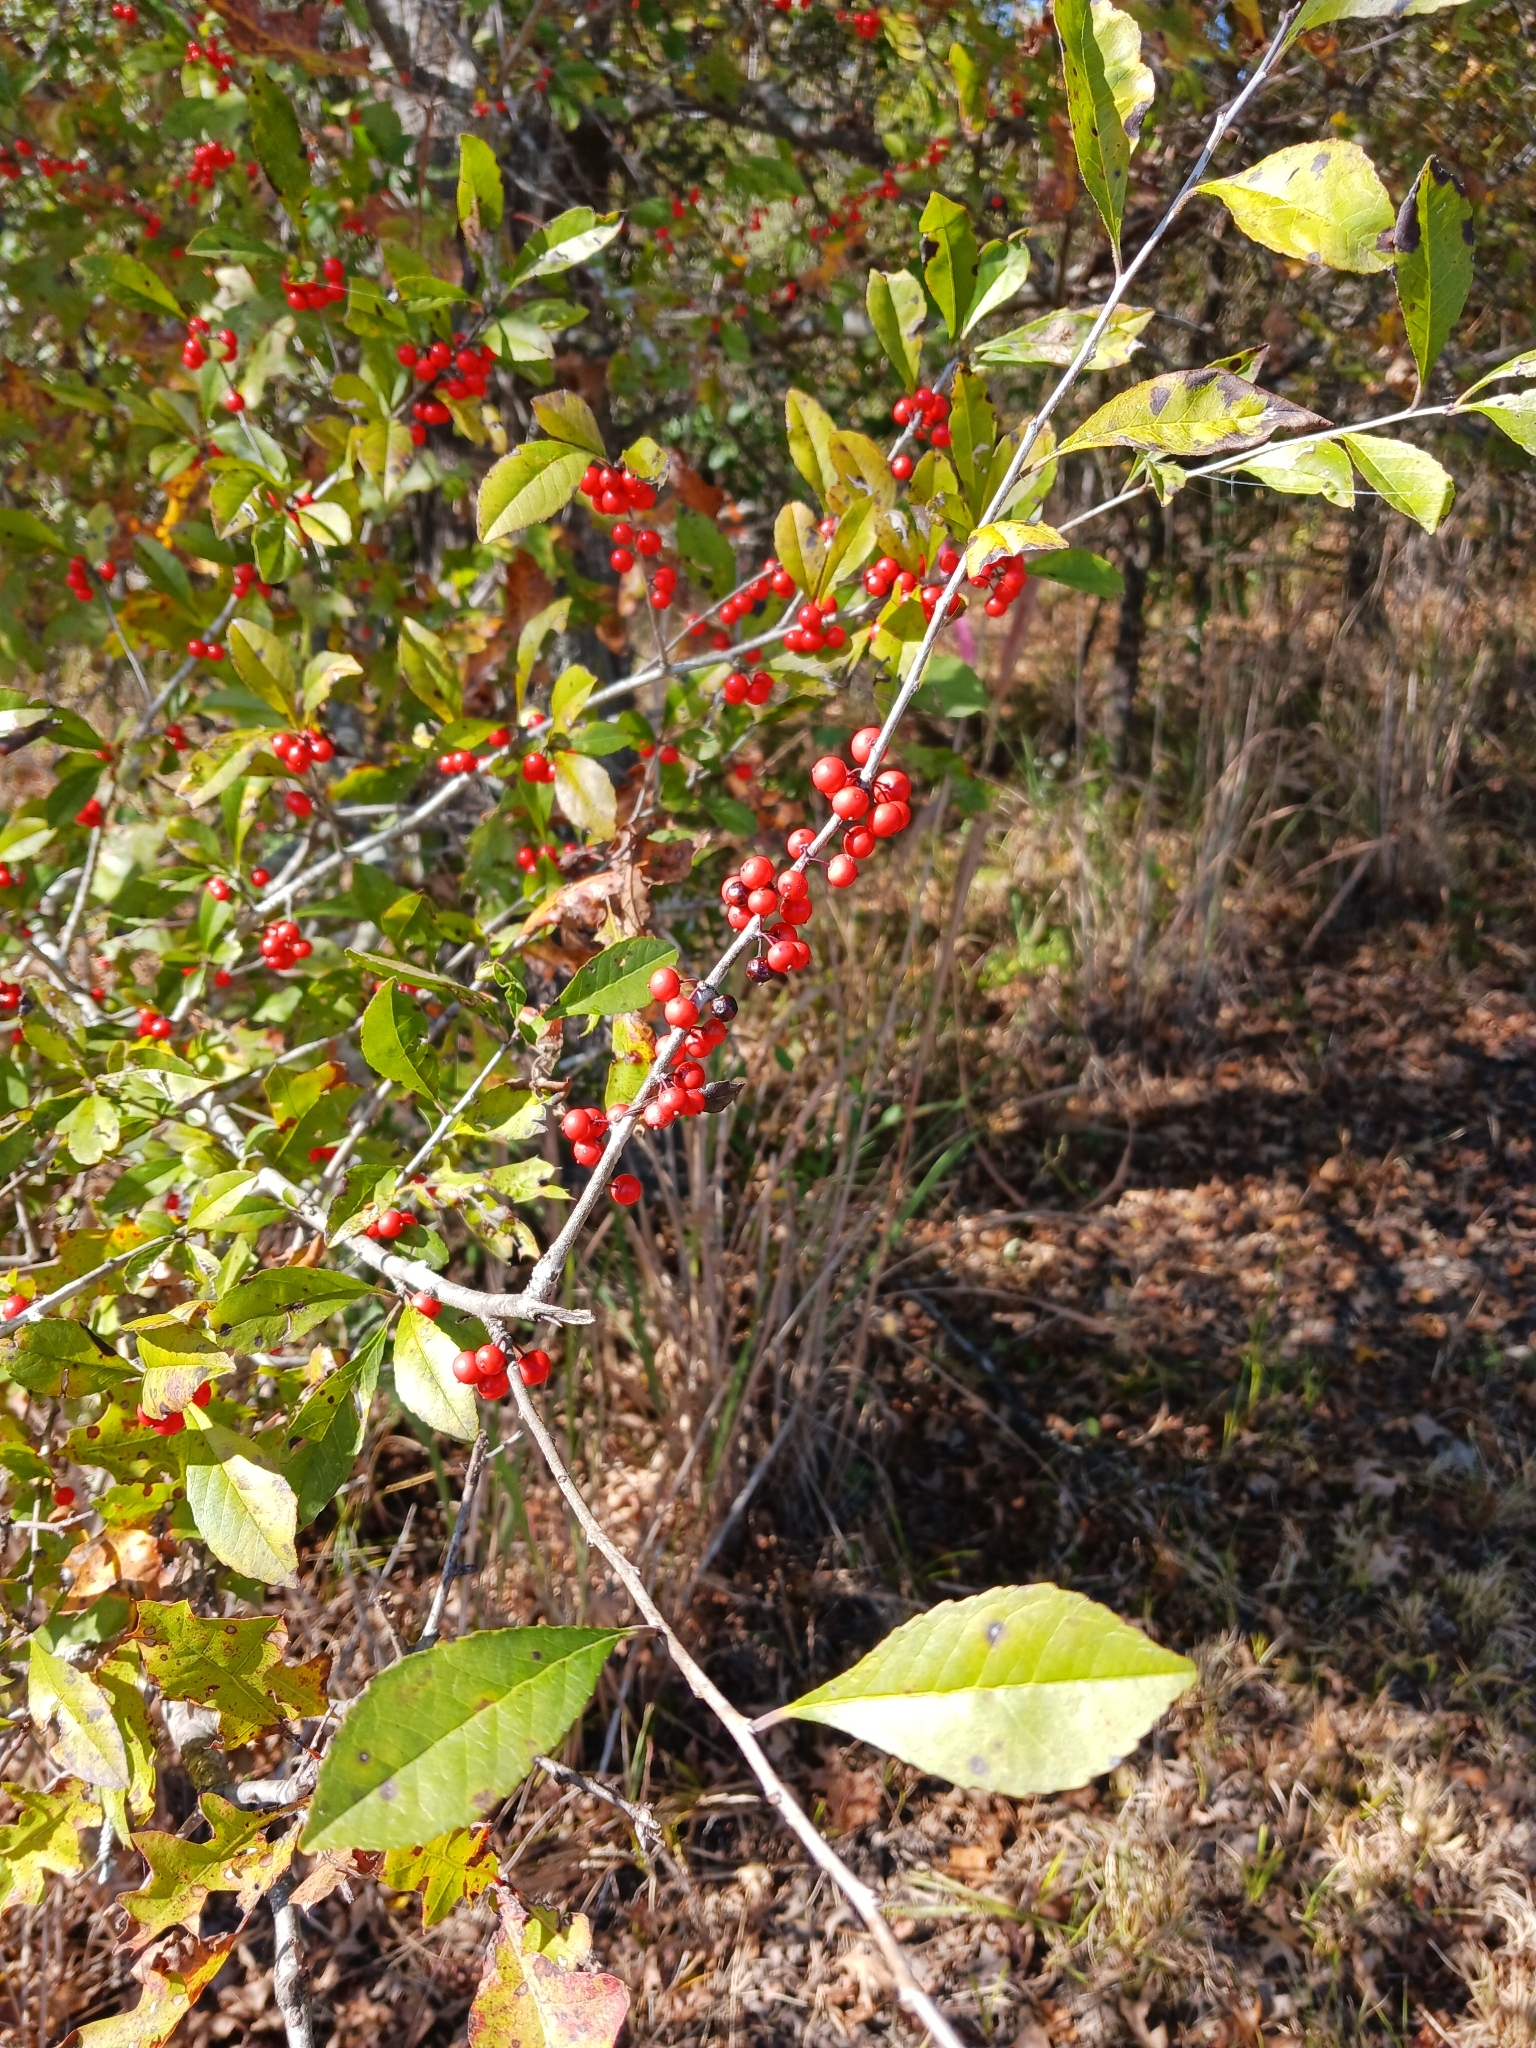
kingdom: Plantae
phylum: Tracheophyta
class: Magnoliopsida
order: Aquifoliales
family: Aquifoliaceae
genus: Ilex
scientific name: Ilex decidua
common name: Possum-haw
